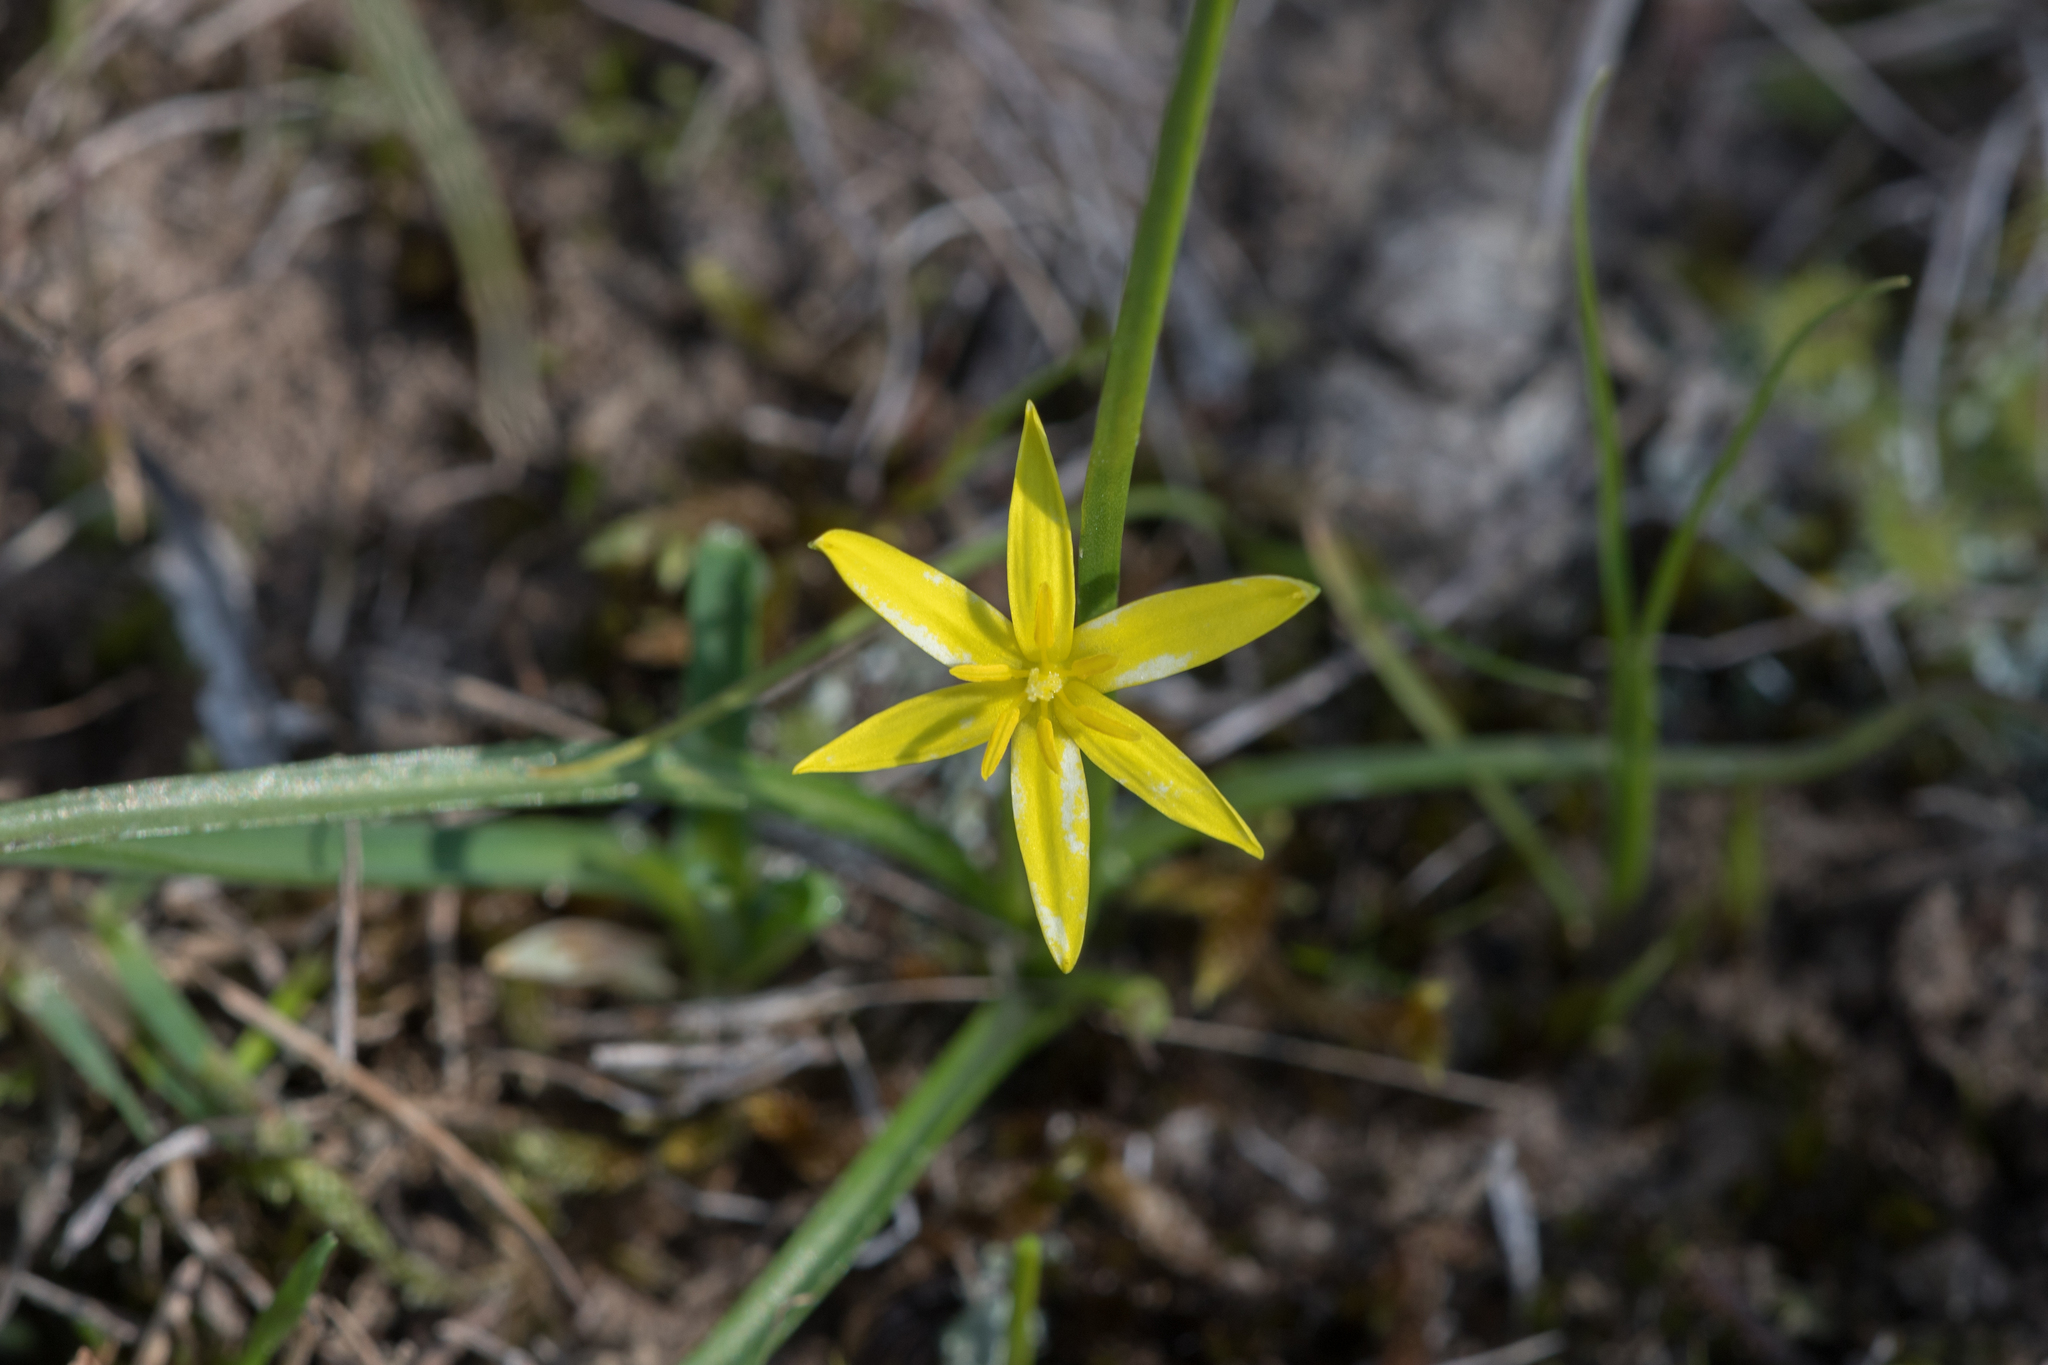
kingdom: Plantae
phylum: Tracheophyta
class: Liliopsida
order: Asparagales
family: Hypoxidaceae
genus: Pauridia
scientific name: Pauridia glabella
